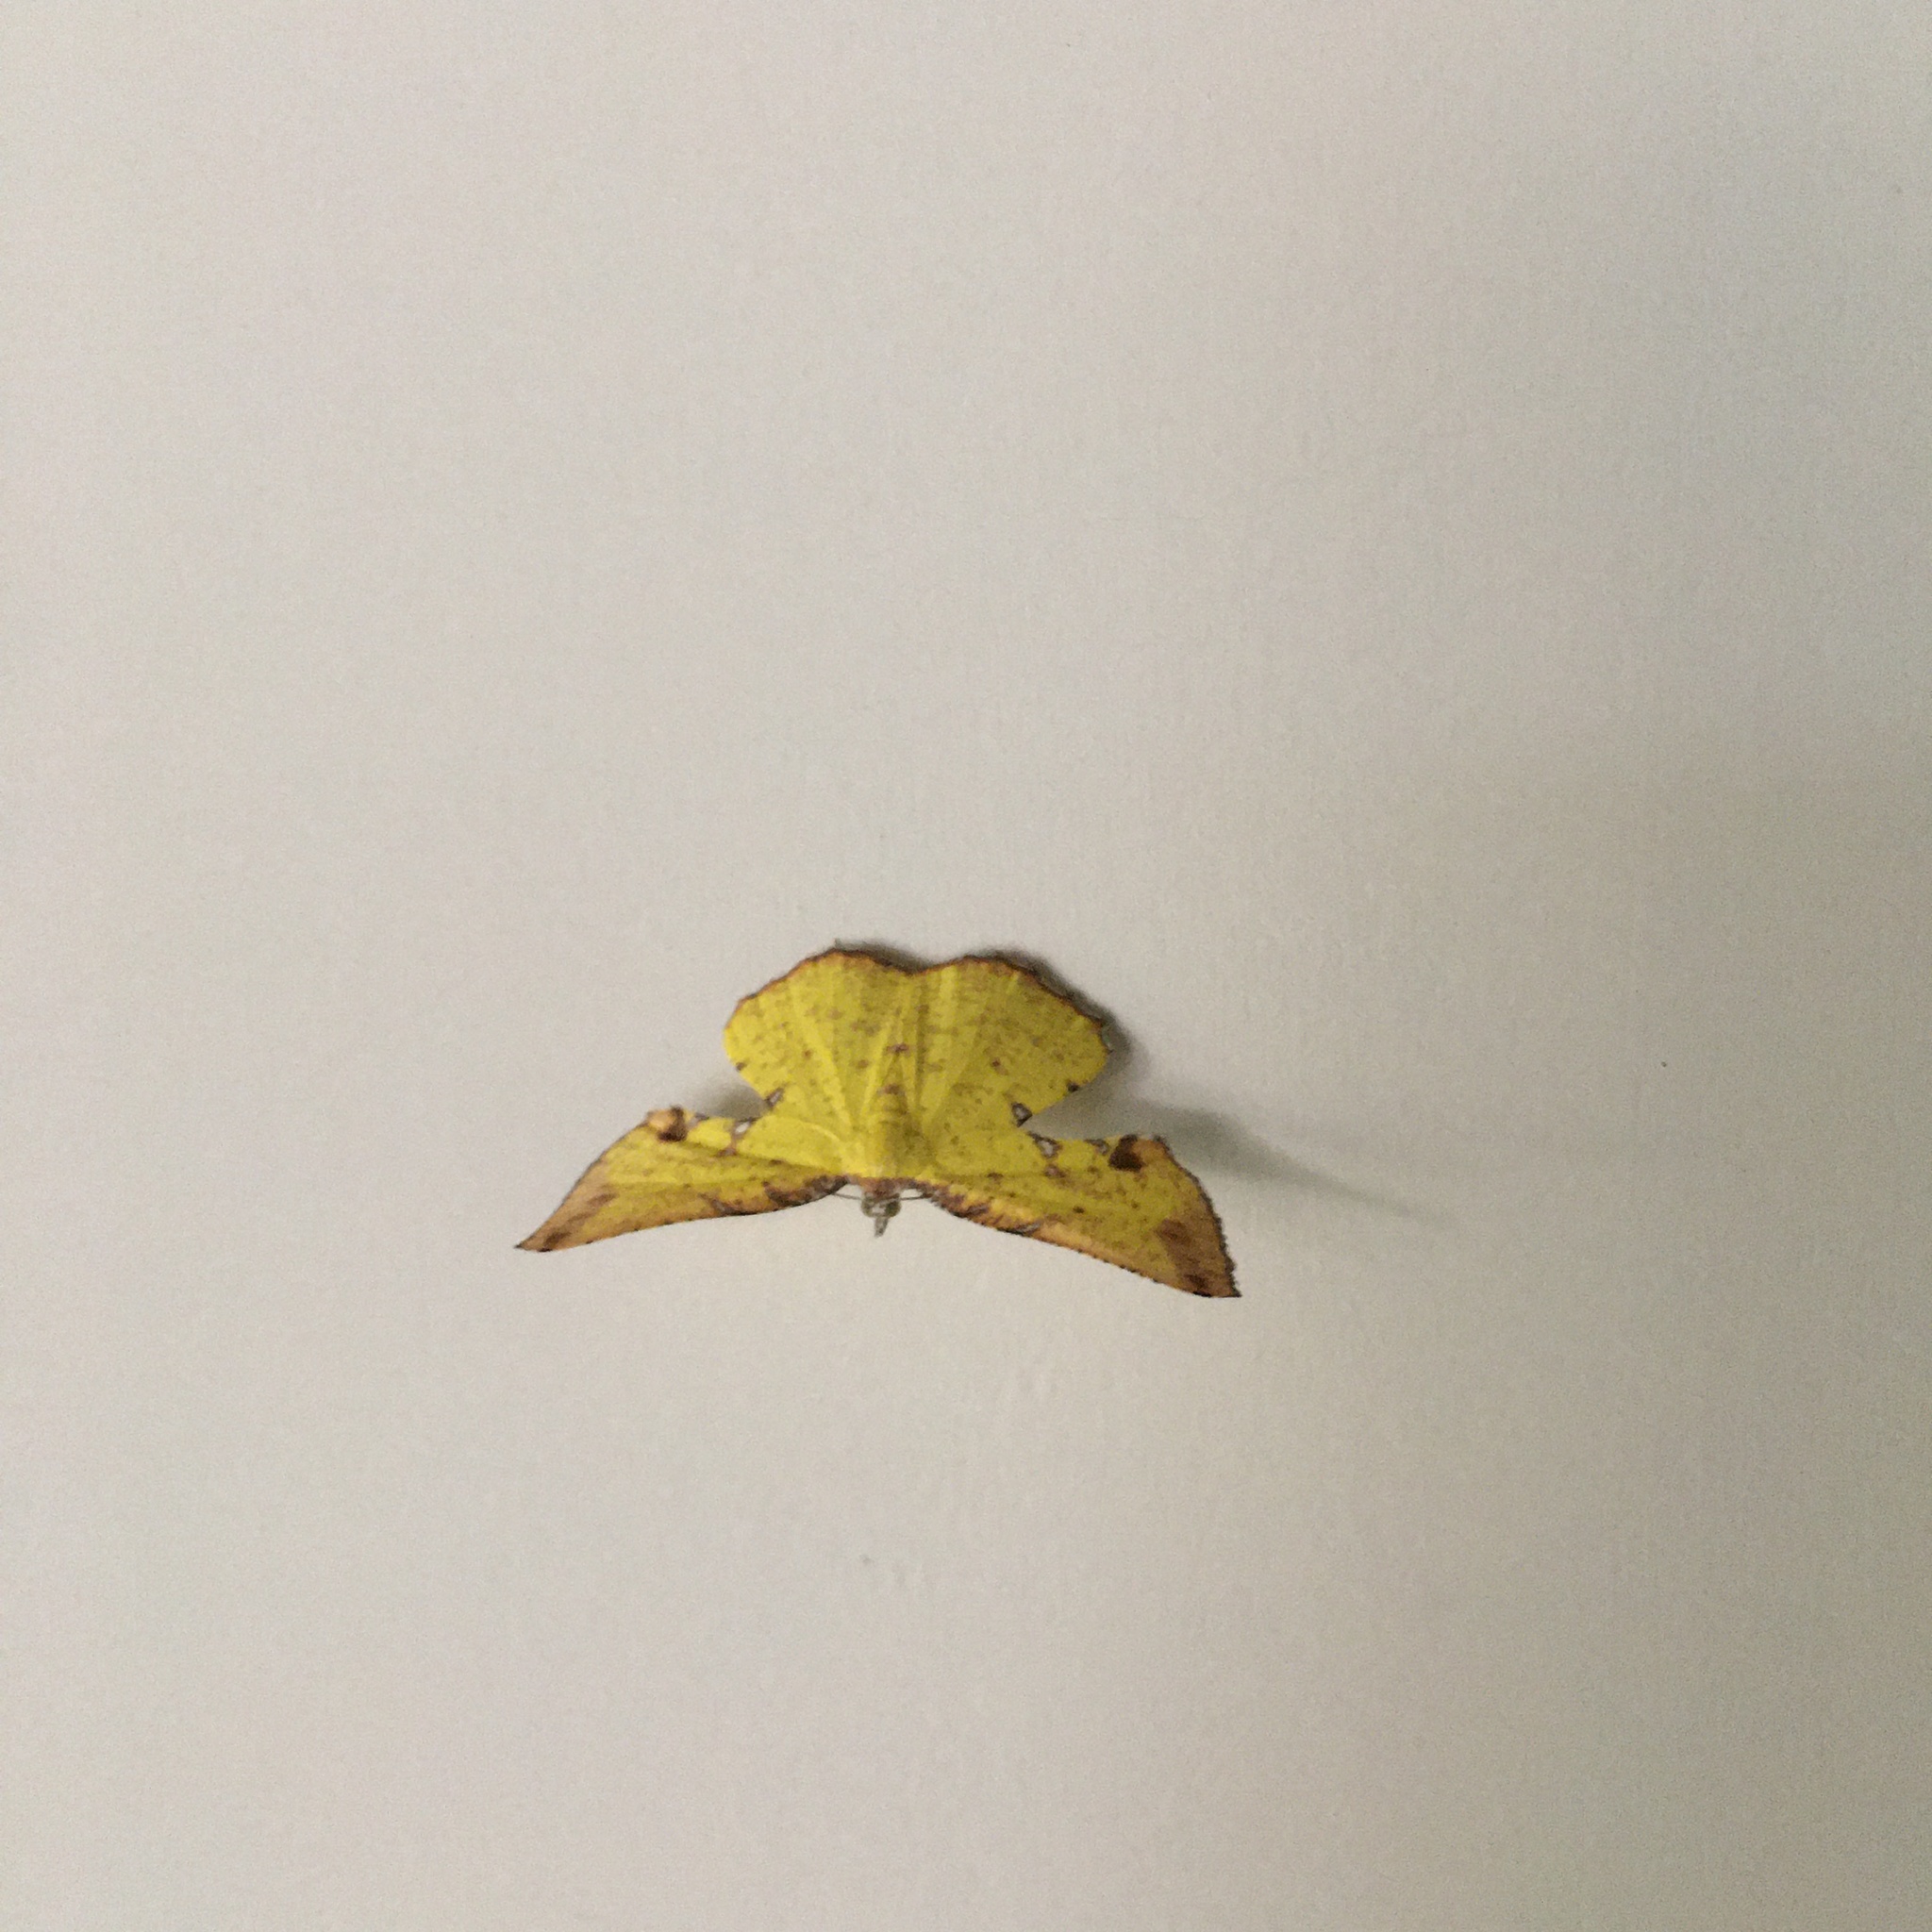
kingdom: Animalia
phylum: Arthropoda
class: Insecta
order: Lepidoptera
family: Geometridae
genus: Corymica
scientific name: Corymica arnearia
